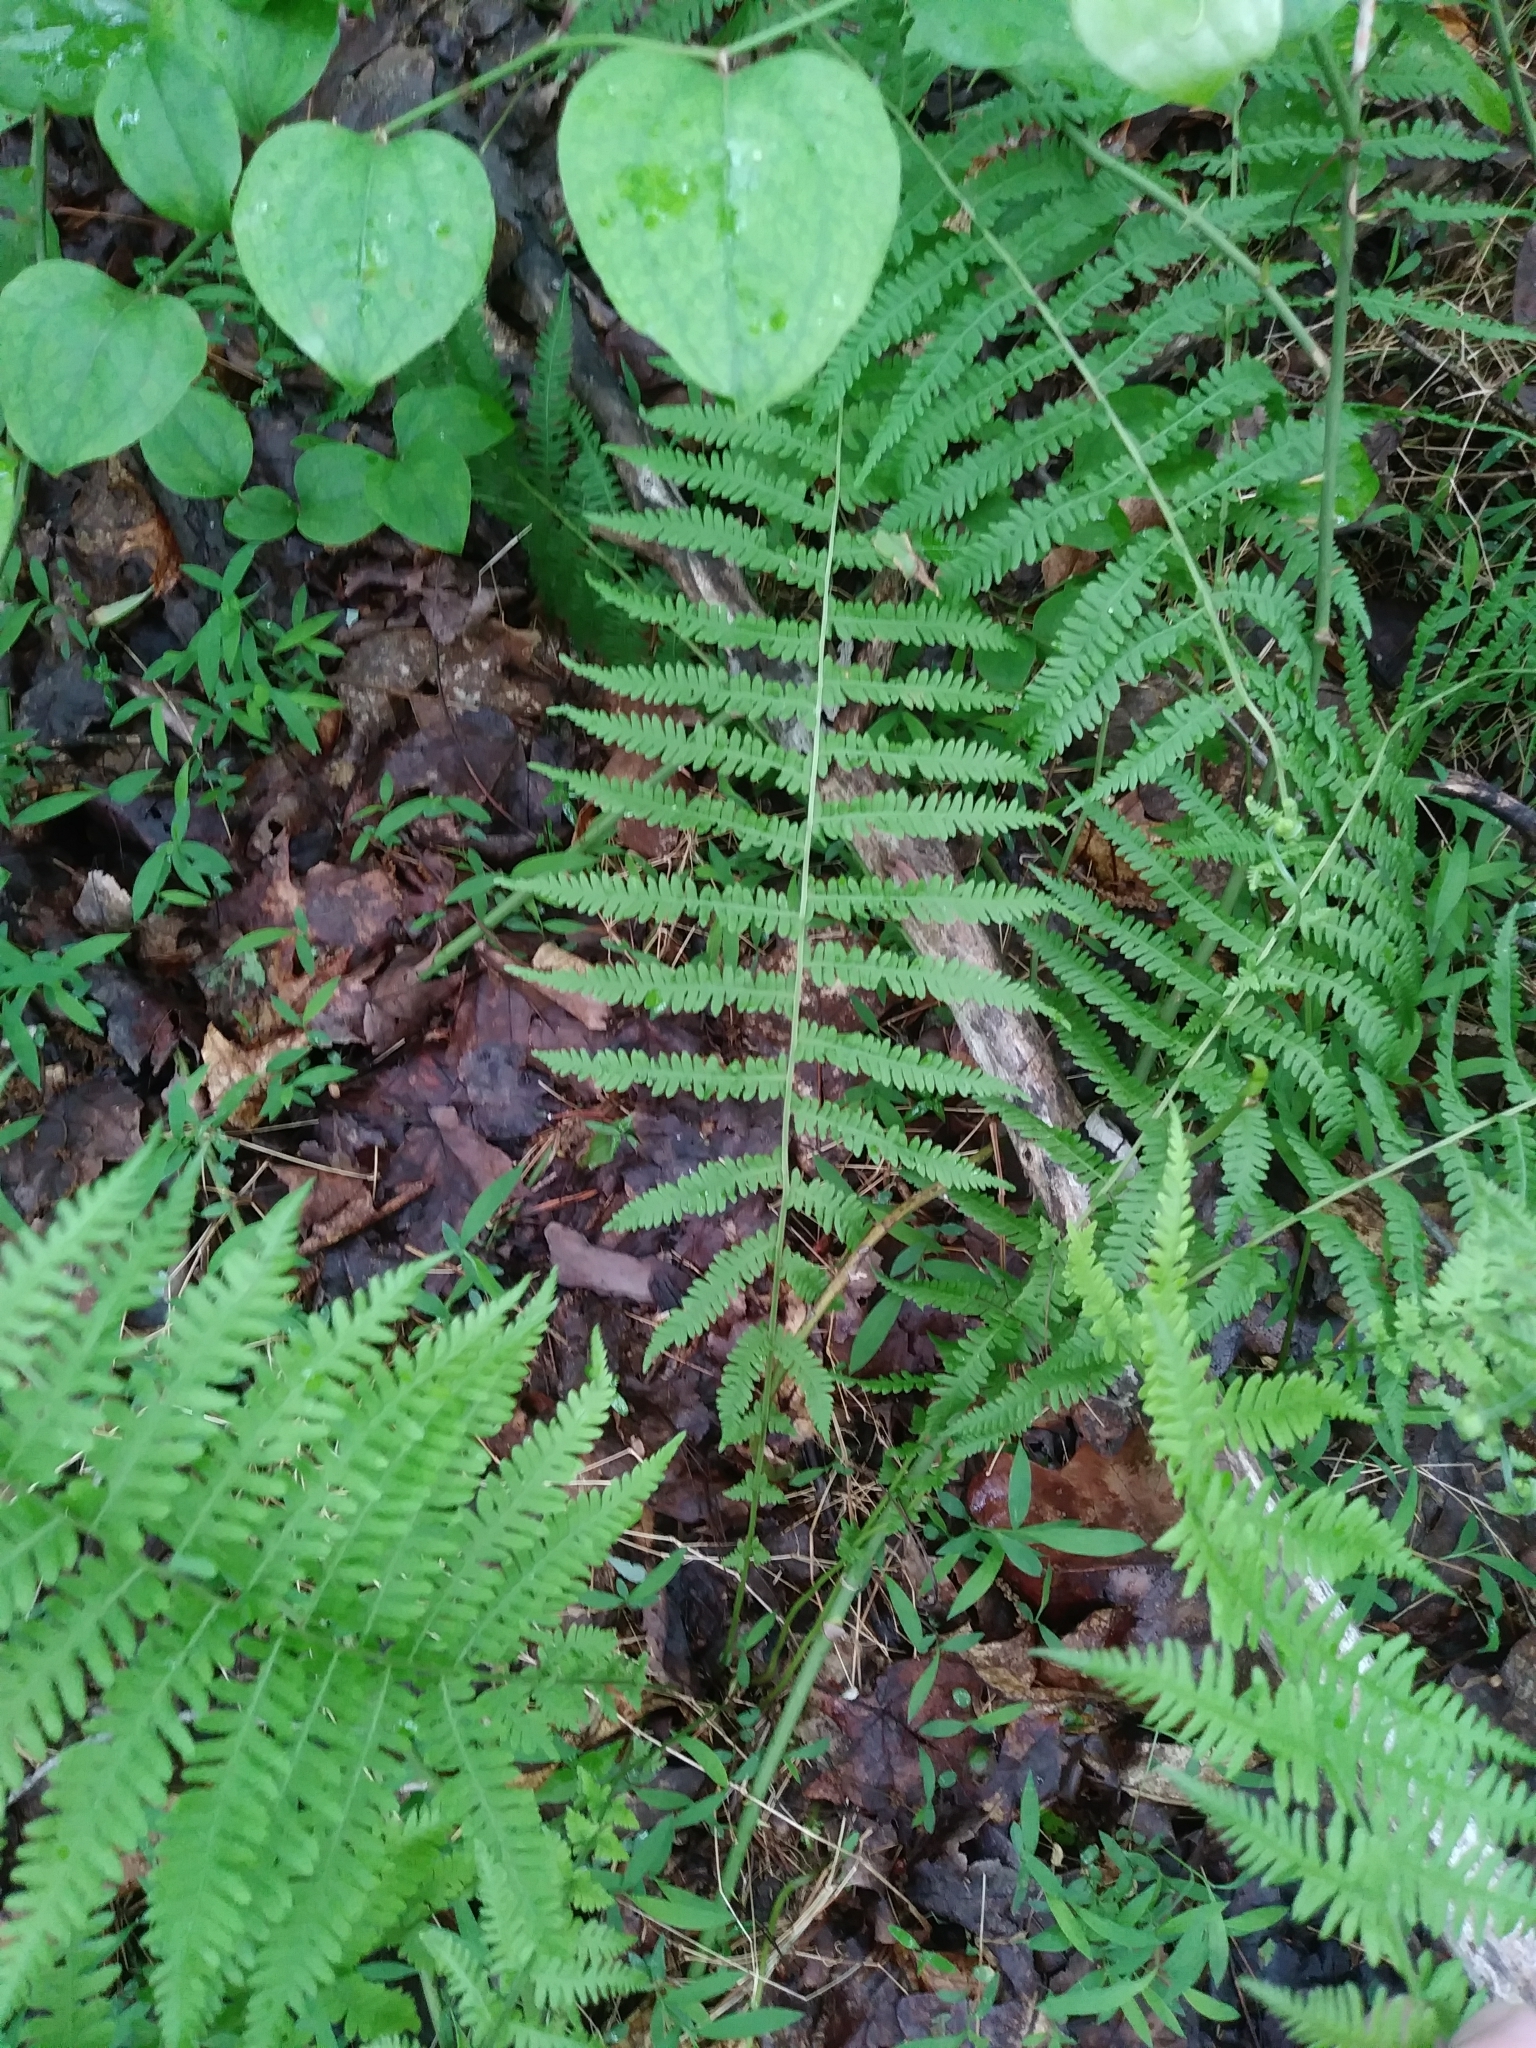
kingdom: Plantae
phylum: Tracheophyta
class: Polypodiopsida
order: Polypodiales
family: Thelypteridaceae
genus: Amauropelta
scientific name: Amauropelta noveboracensis
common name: New york fern
